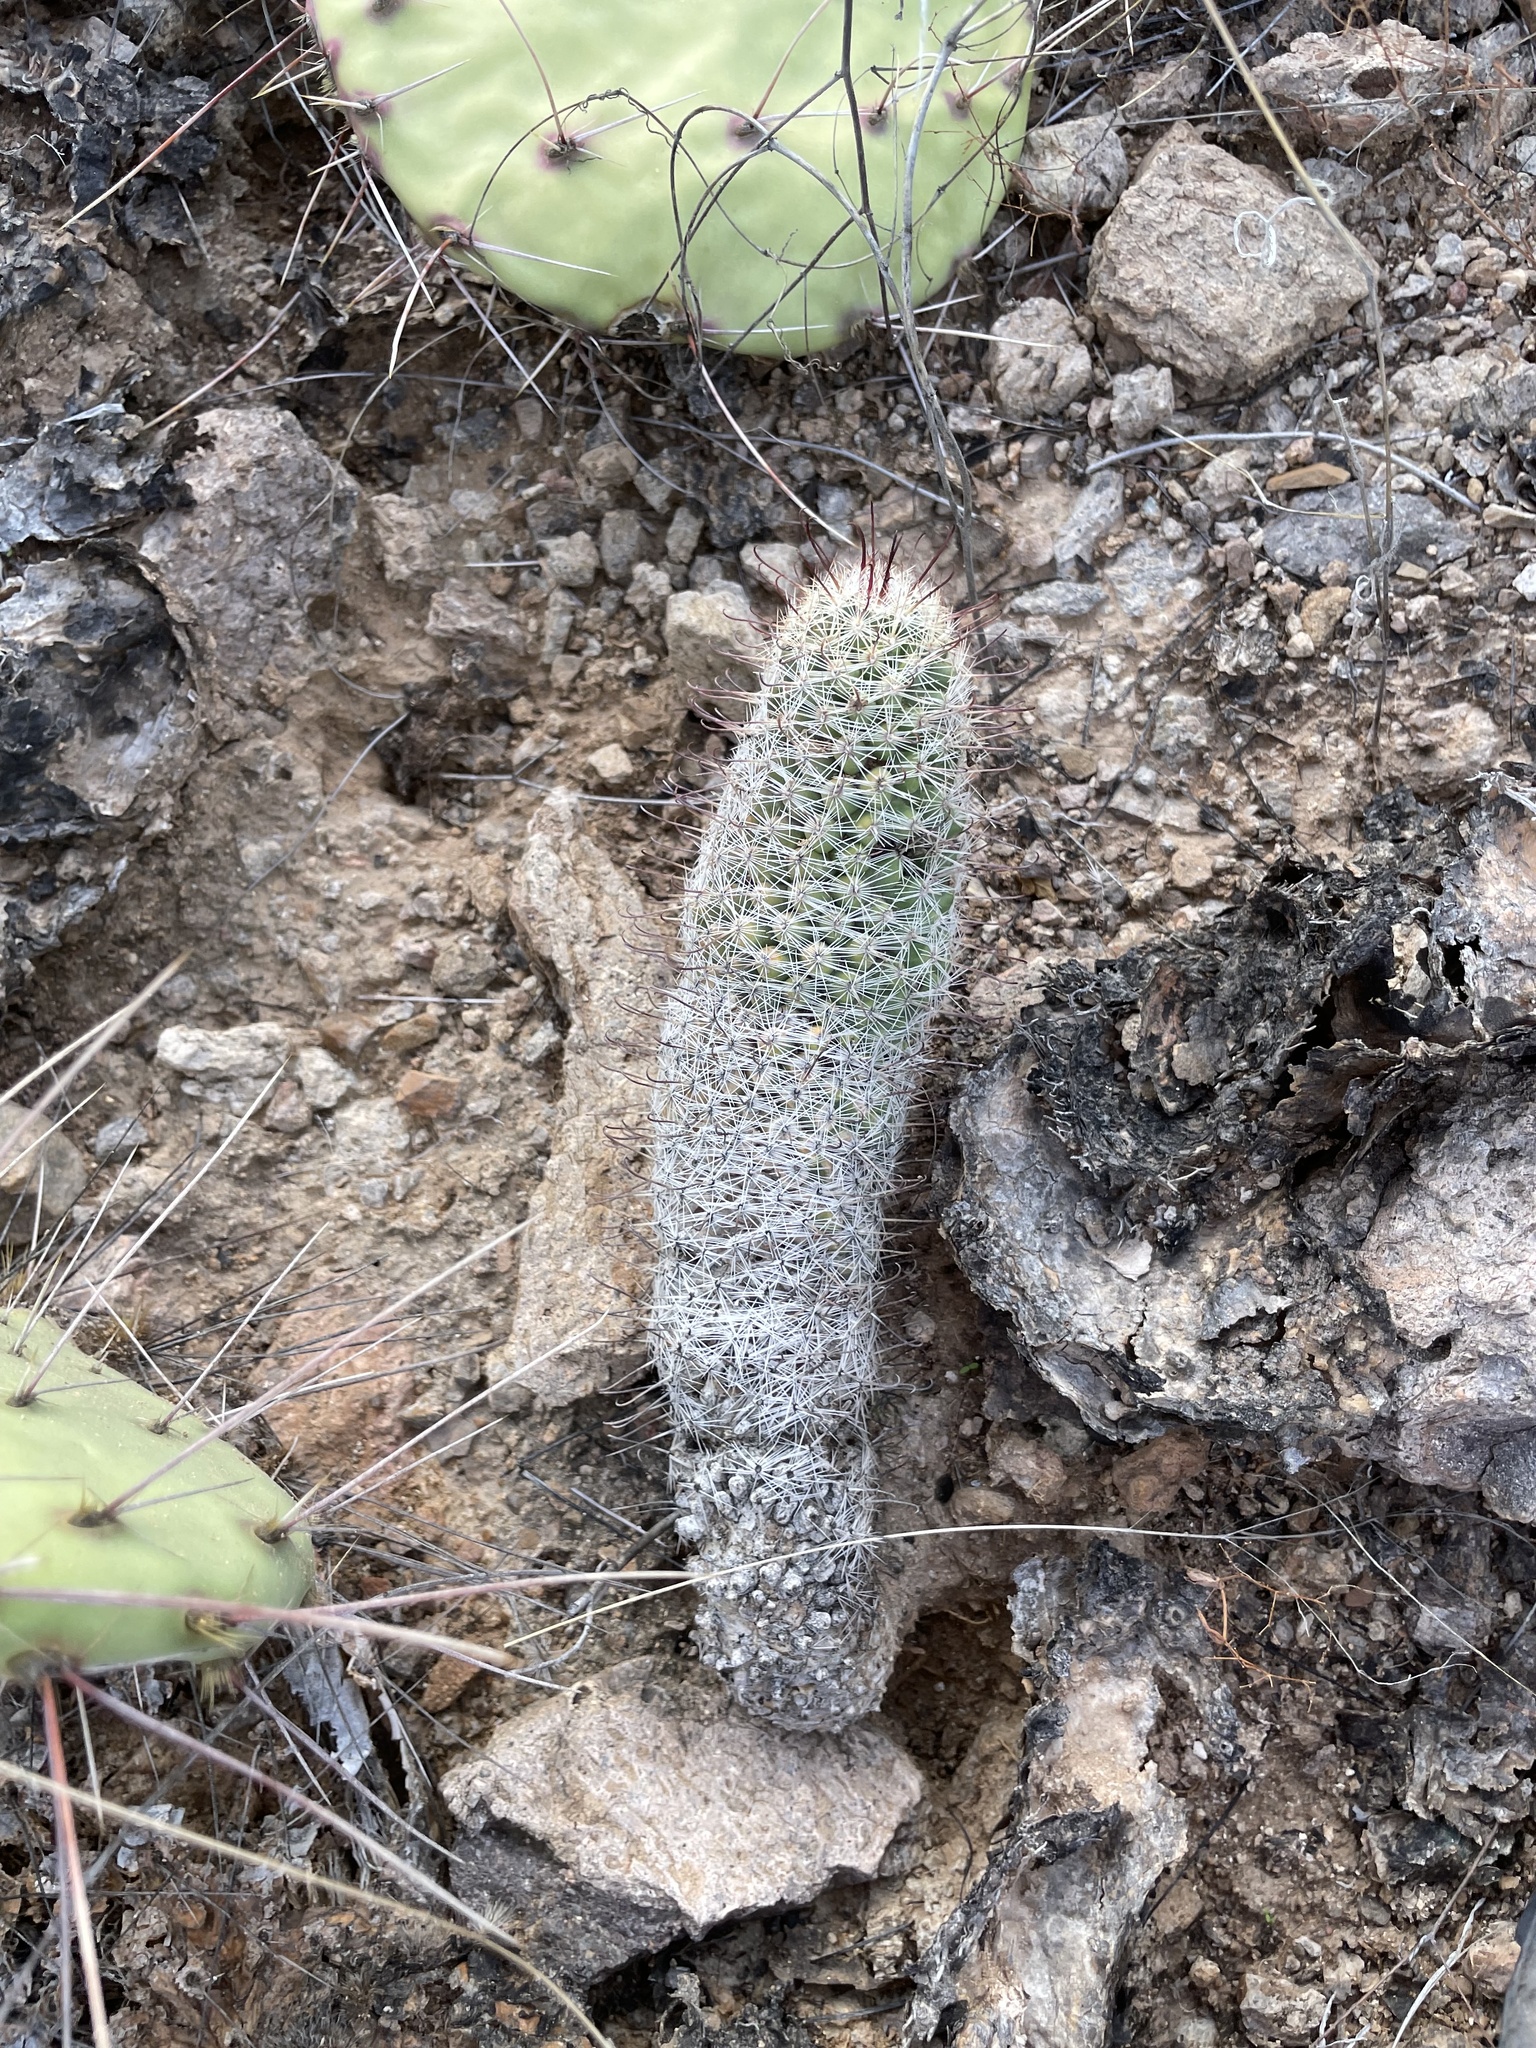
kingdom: Plantae
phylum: Tracheophyta
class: Magnoliopsida
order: Caryophyllales
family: Cactaceae
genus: Cochemiea
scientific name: Cochemiea grahamii
